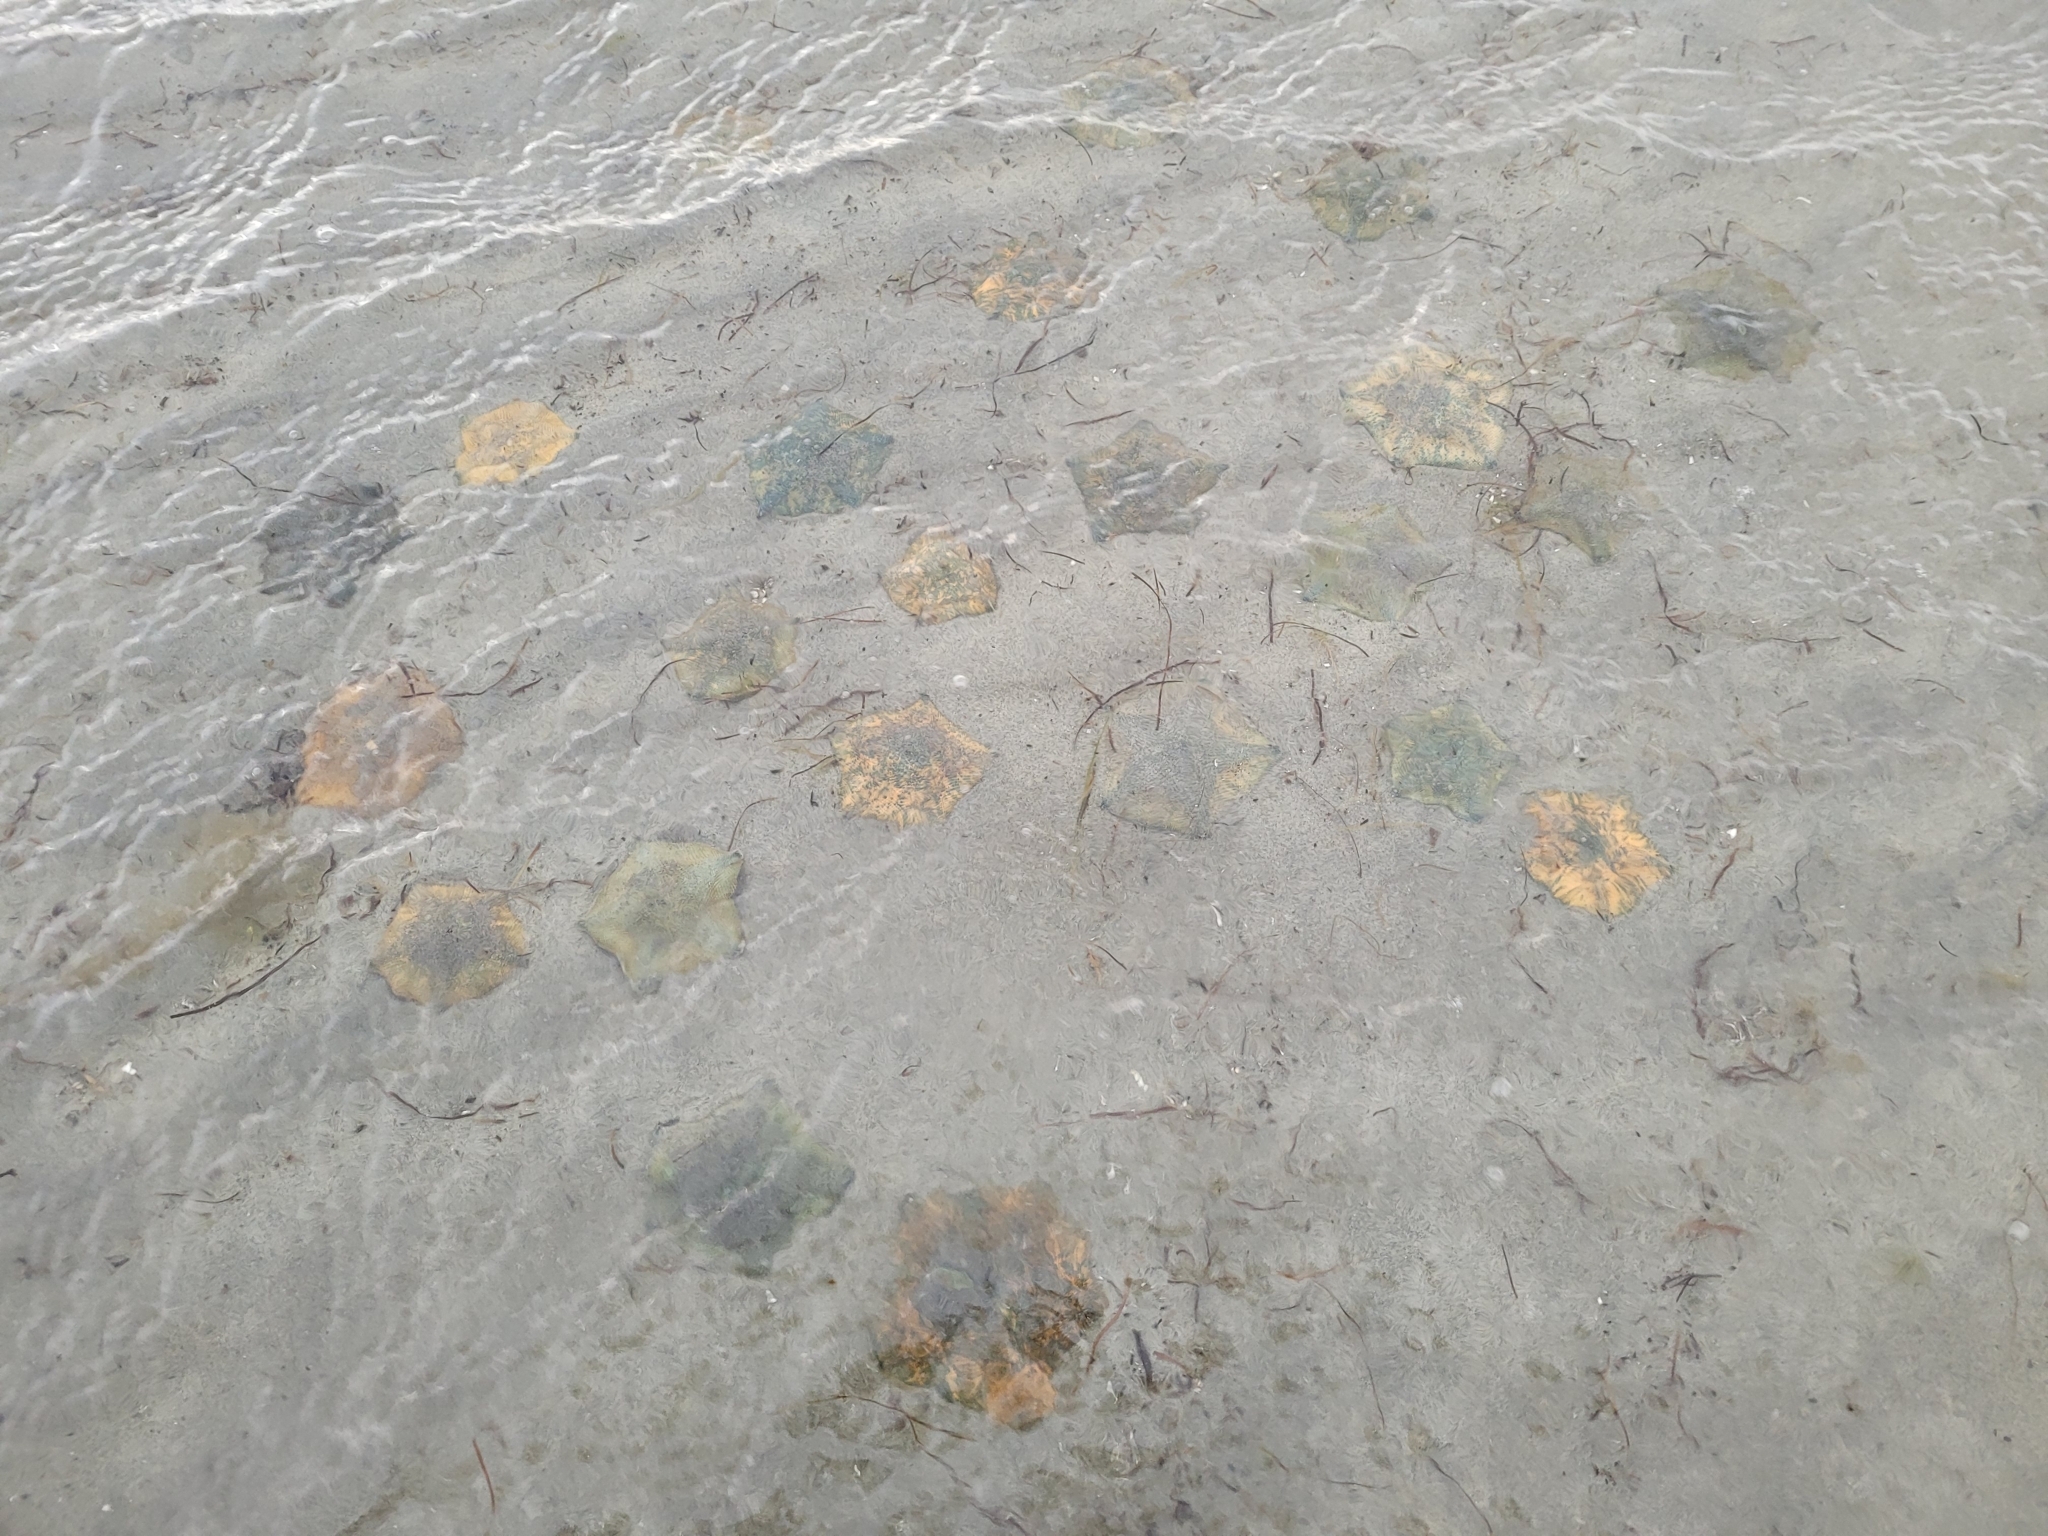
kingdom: Animalia
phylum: Echinodermata
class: Asteroidea
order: Valvatida
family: Asterinidae
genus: Patiriella
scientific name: Patiriella regularis
